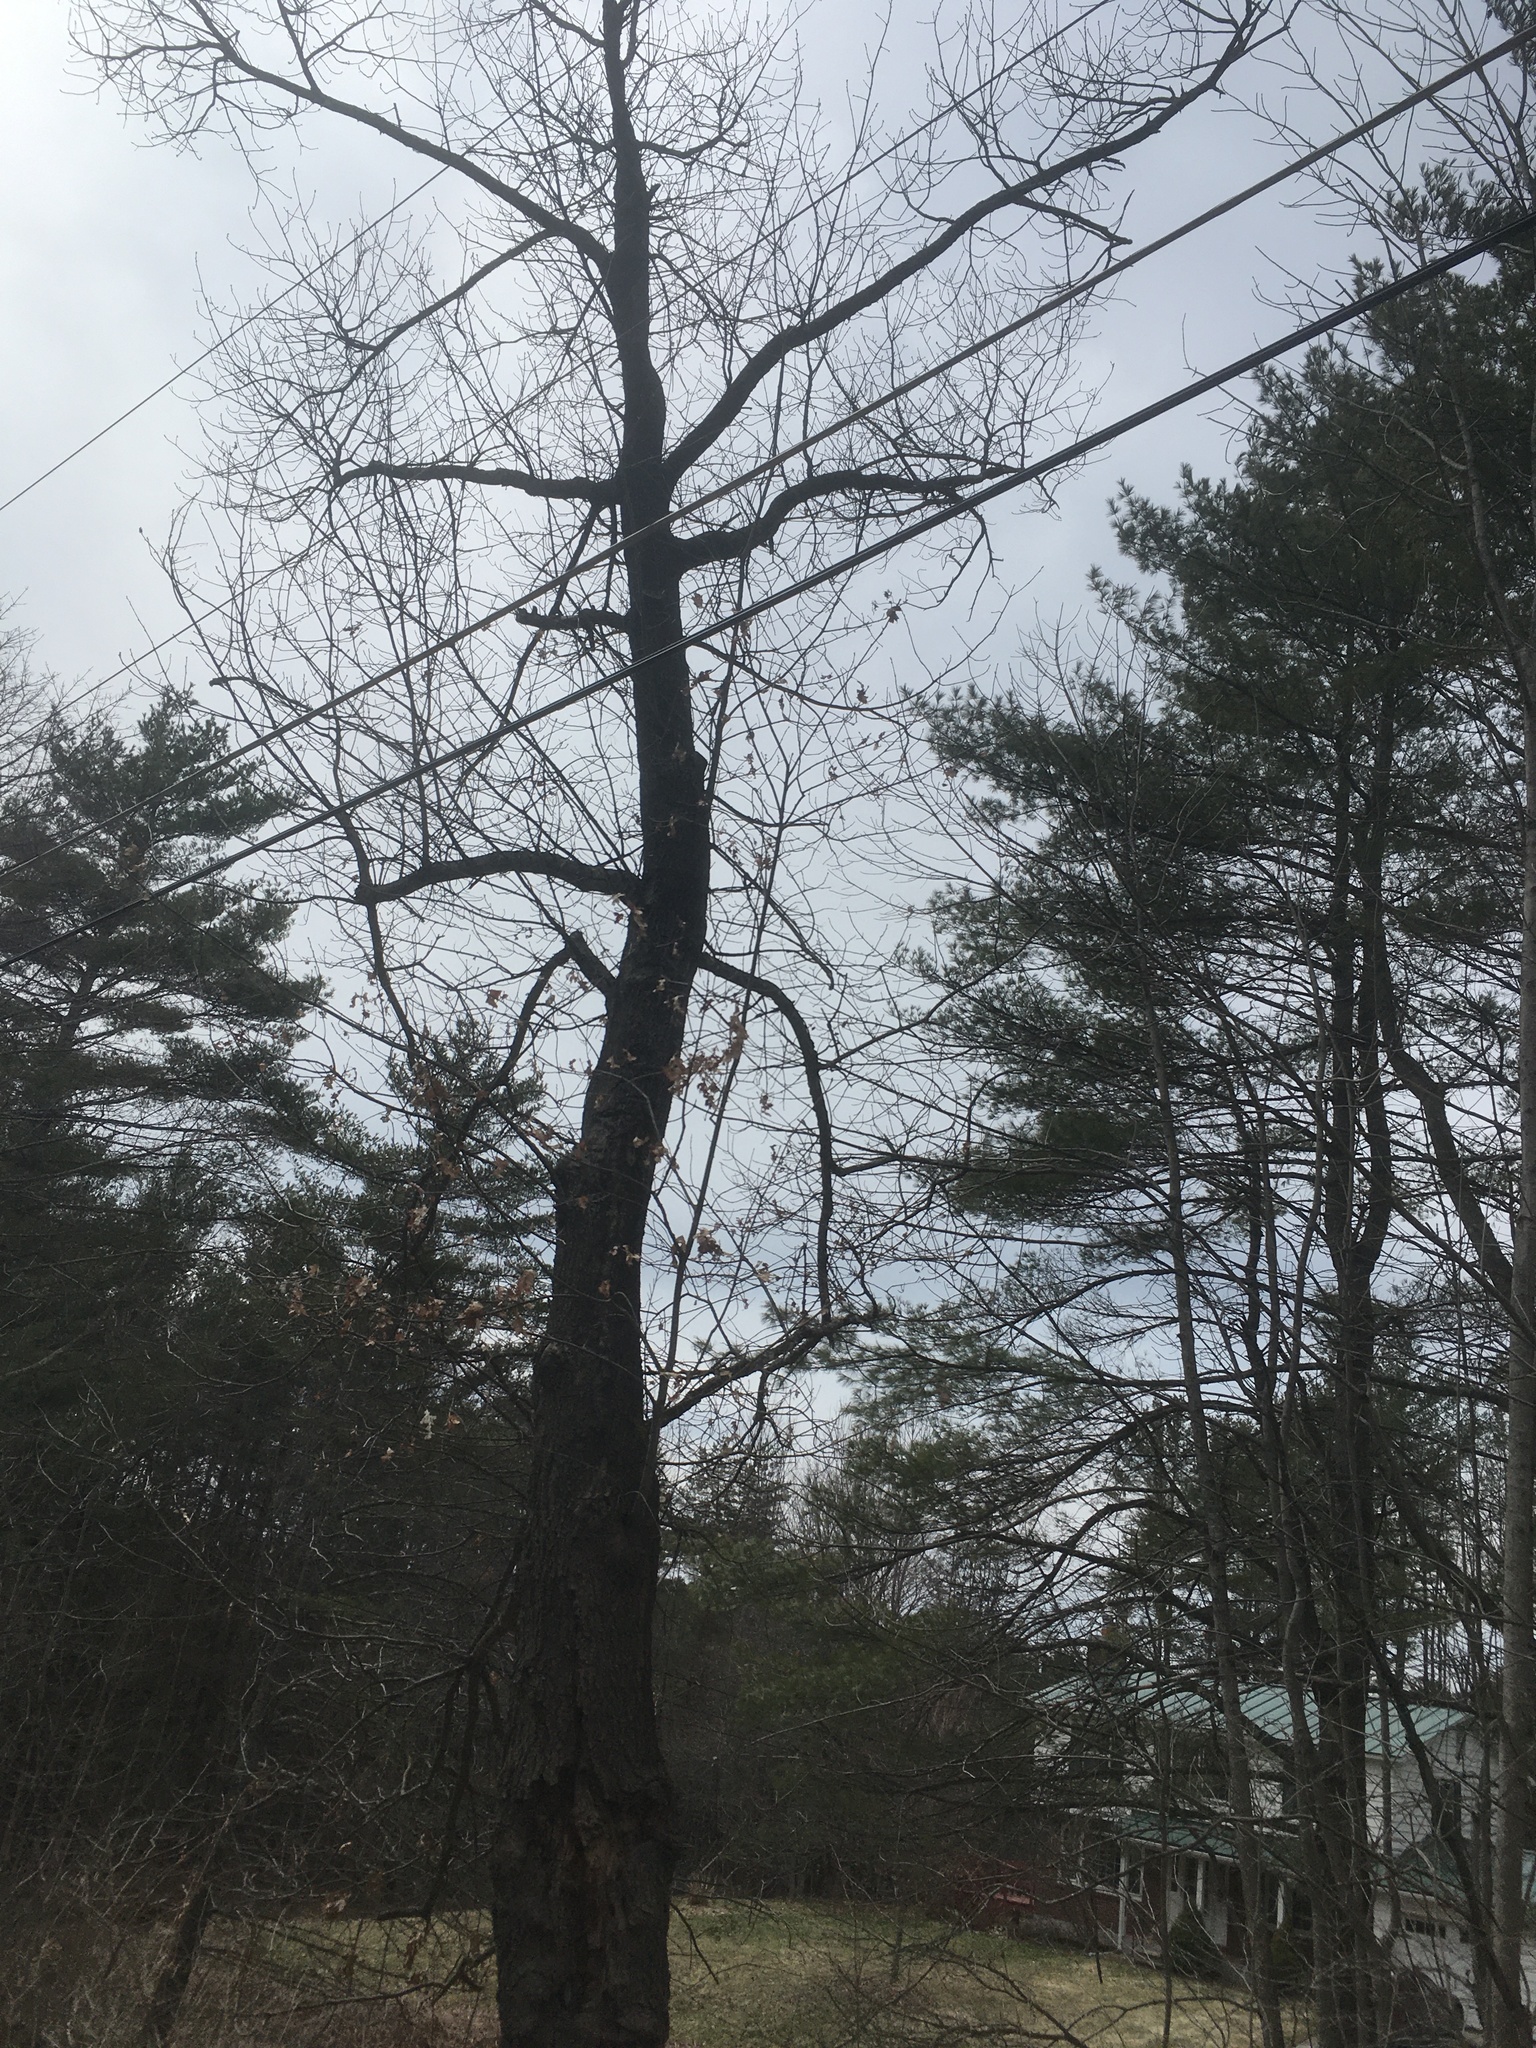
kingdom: Plantae
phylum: Tracheophyta
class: Magnoliopsida
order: Fagales
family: Fagaceae
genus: Quercus
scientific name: Quercus velutina
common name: Black oak
